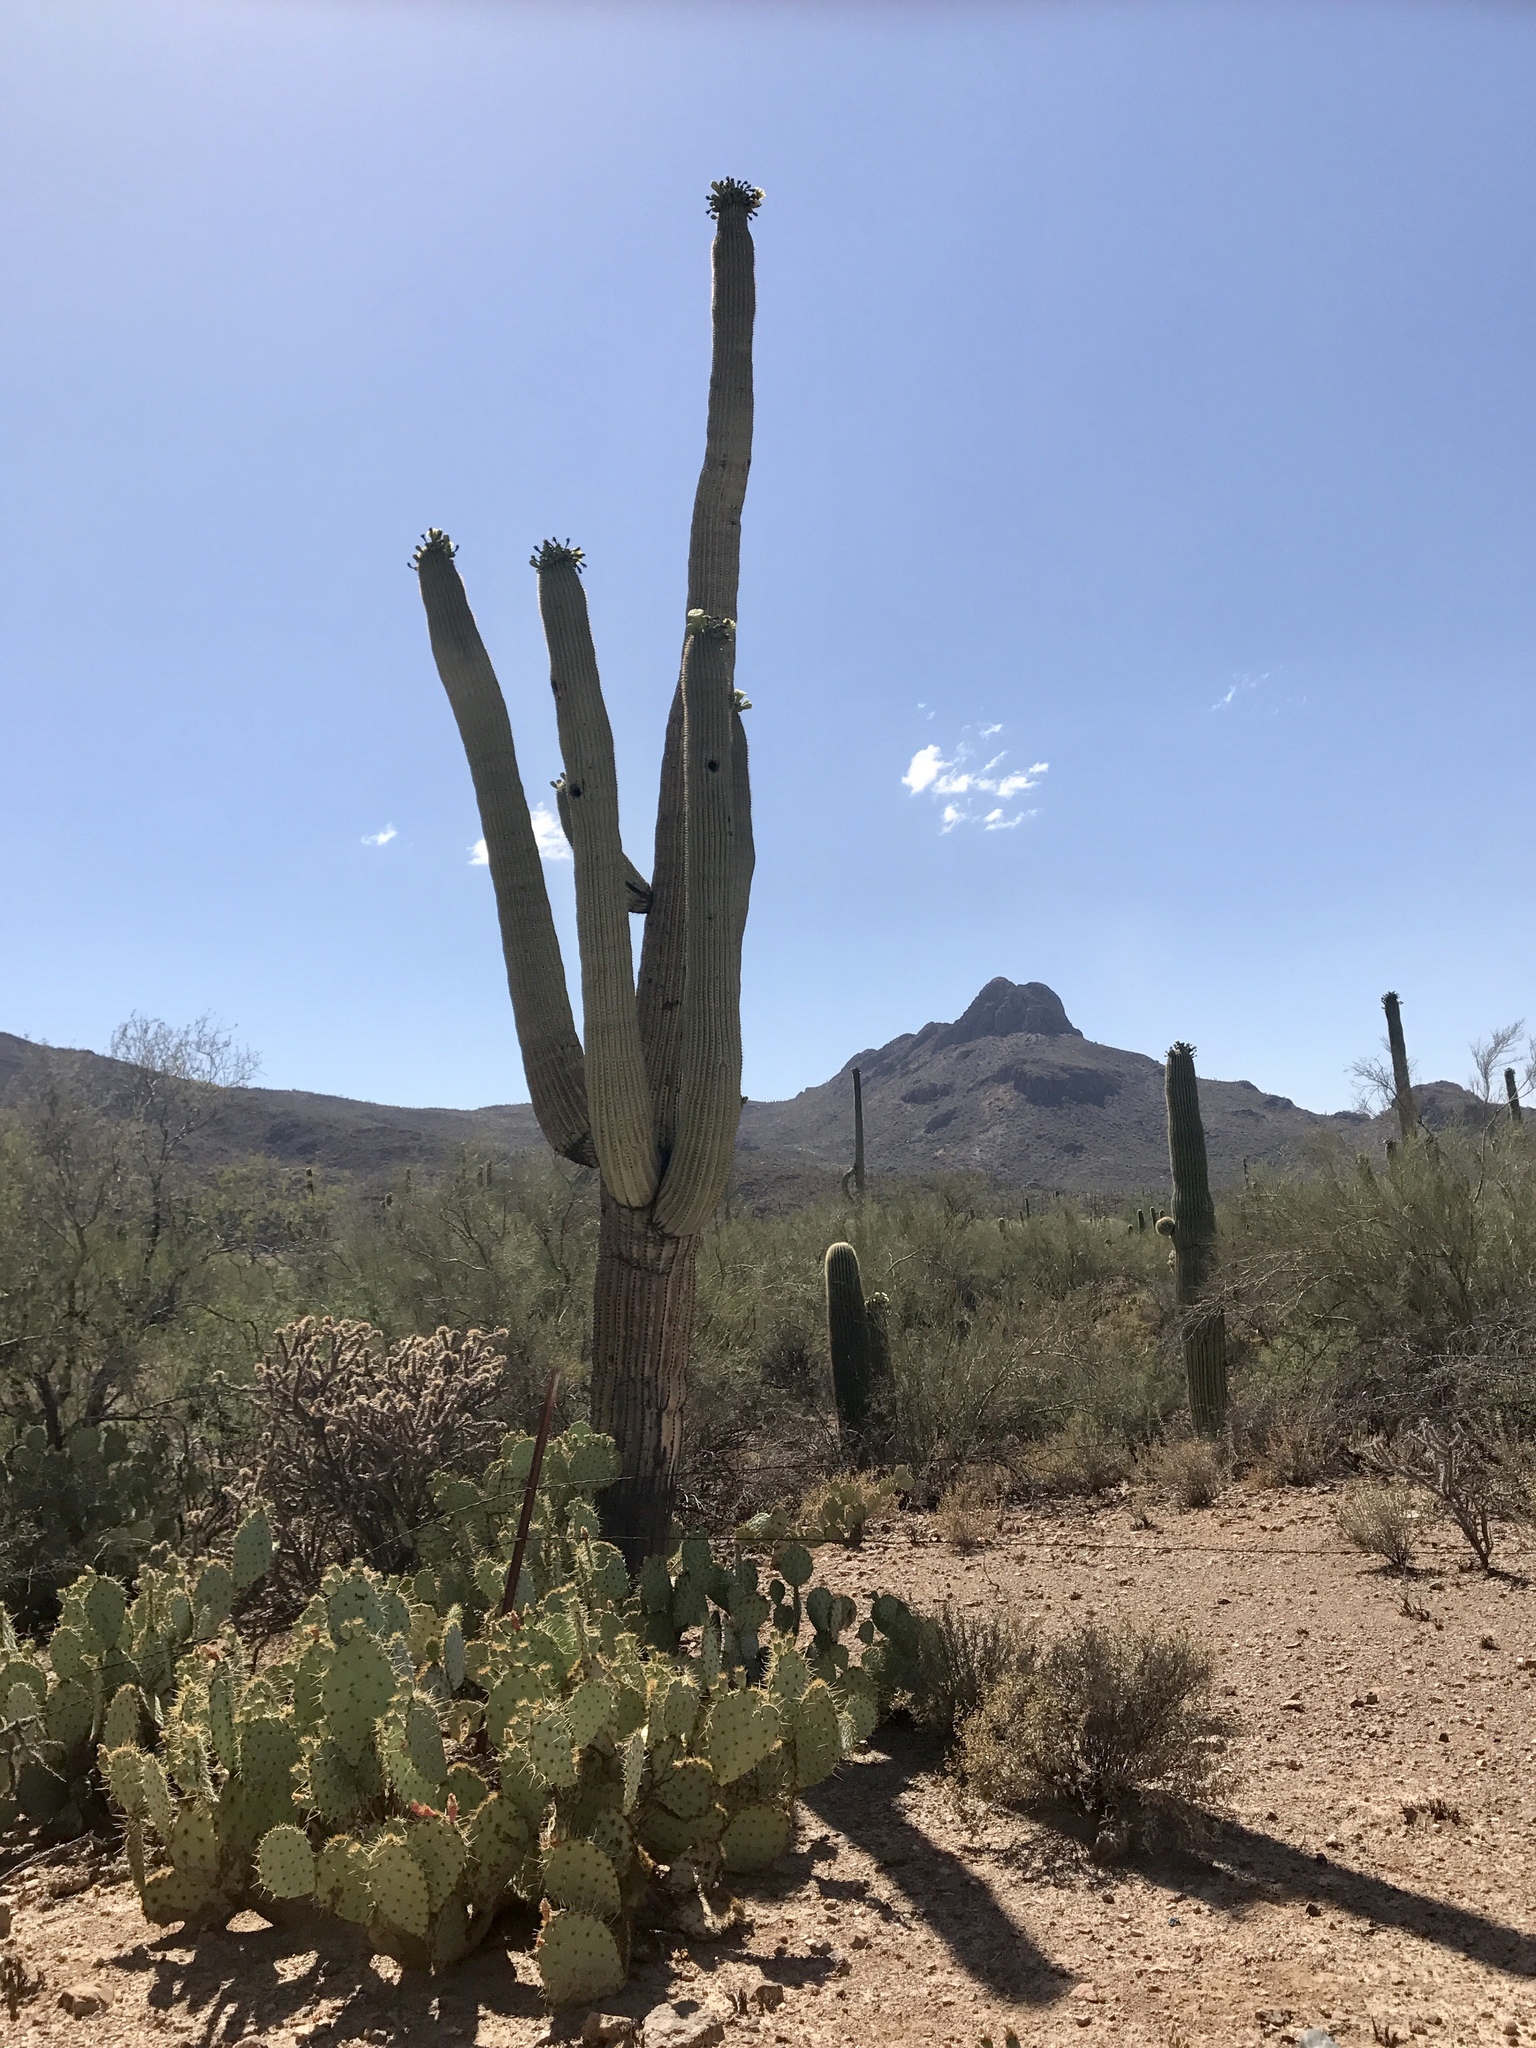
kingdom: Plantae
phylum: Tracheophyta
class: Magnoliopsida
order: Caryophyllales
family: Cactaceae
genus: Carnegiea
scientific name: Carnegiea gigantea
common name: Saguaro
